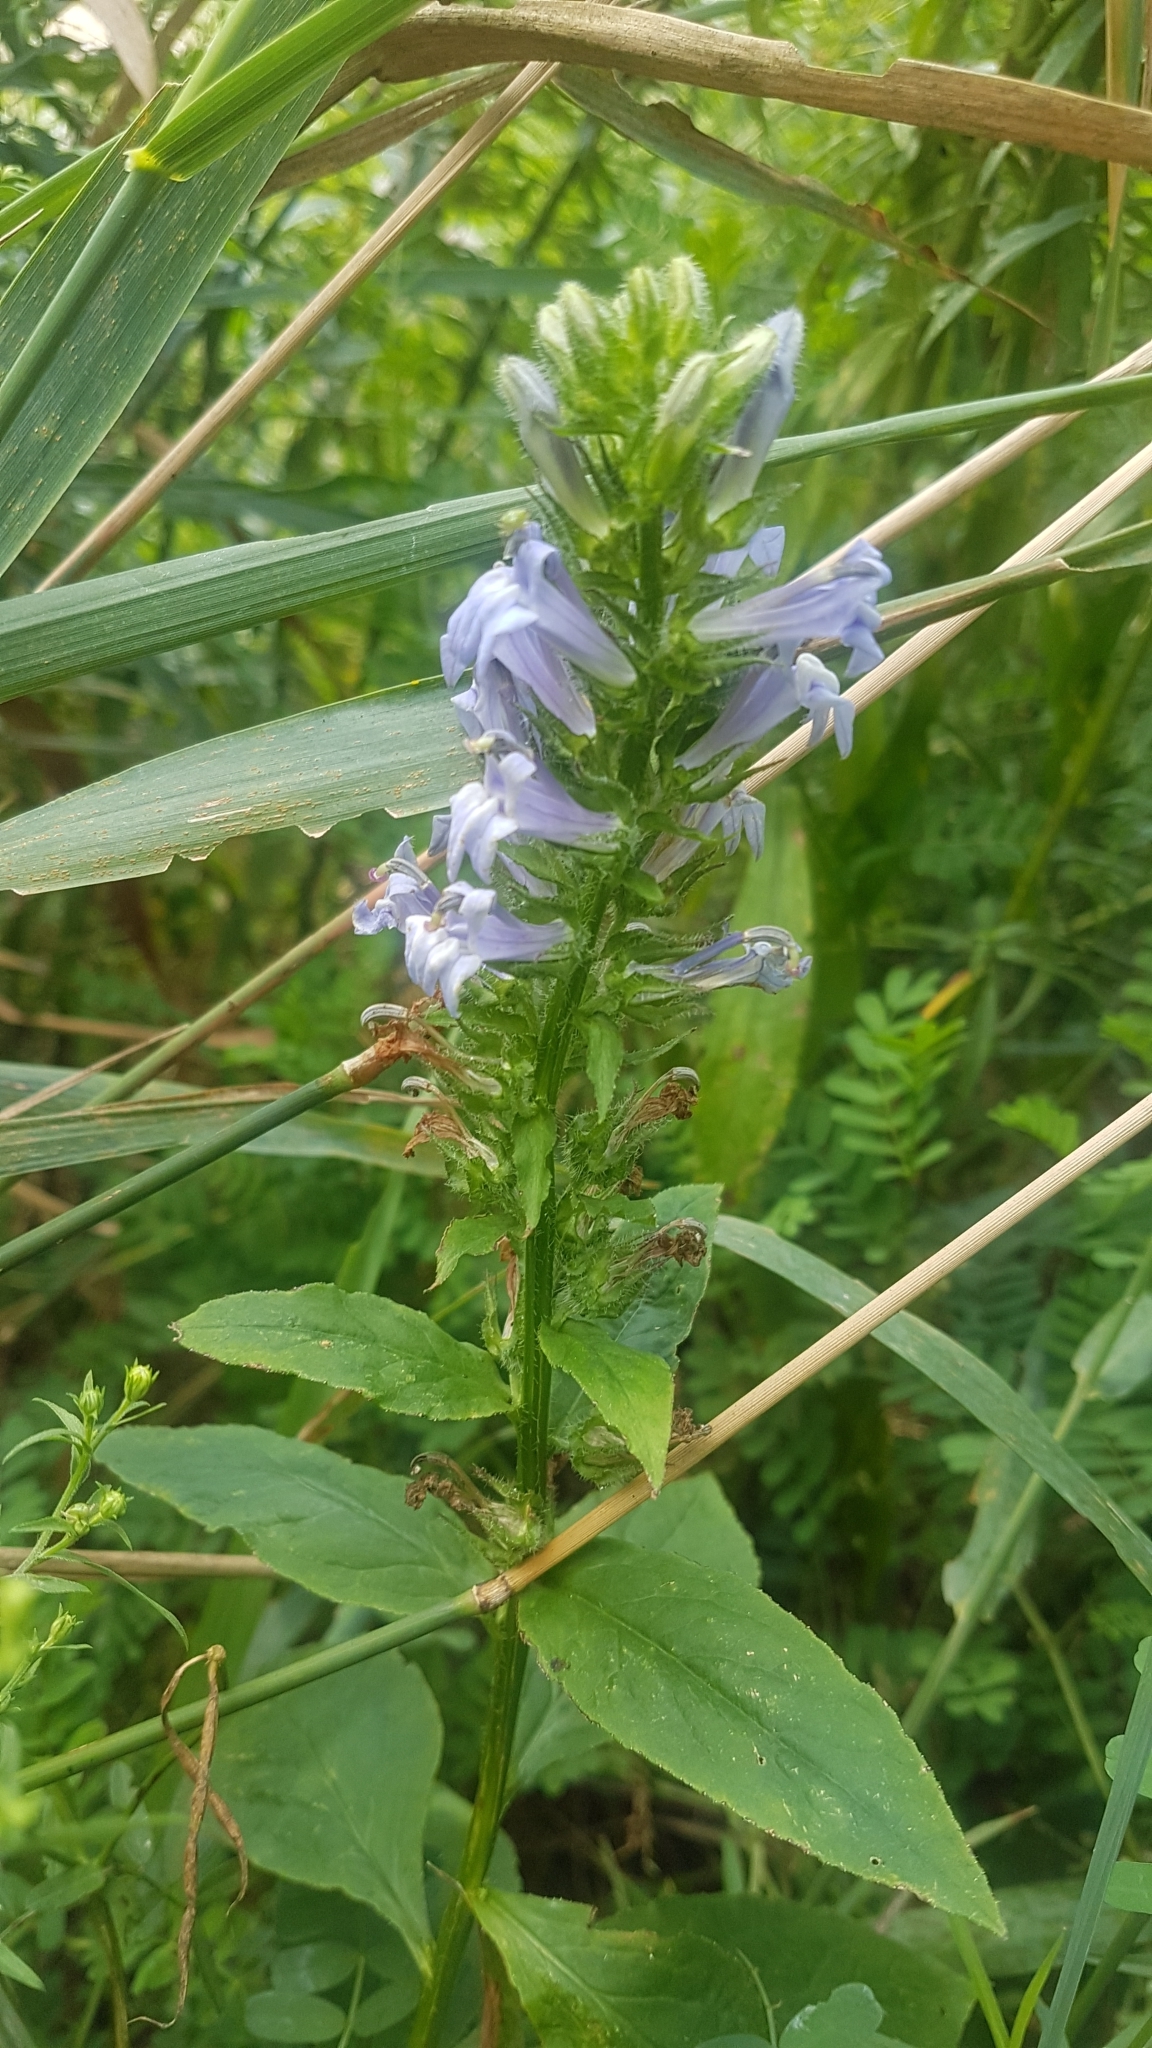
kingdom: Plantae
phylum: Tracheophyta
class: Magnoliopsida
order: Asterales
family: Campanulaceae
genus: Lobelia
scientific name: Lobelia siphilitica
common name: Great lobelia
